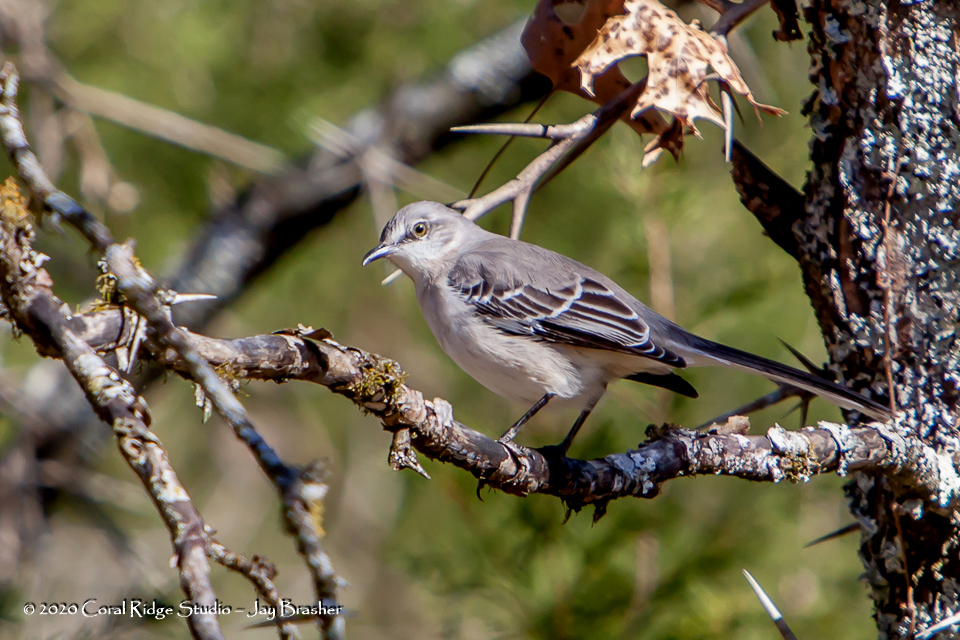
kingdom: Animalia
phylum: Chordata
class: Aves
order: Passeriformes
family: Mimidae
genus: Mimus
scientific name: Mimus polyglottos
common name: Northern mockingbird
